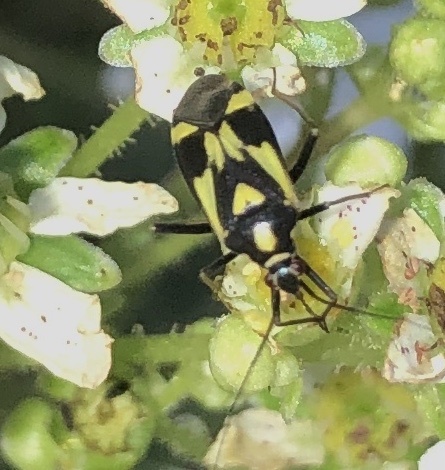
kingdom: Animalia
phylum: Arthropoda
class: Insecta
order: Hemiptera
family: Miridae
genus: Grypocoris
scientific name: Grypocoris sexguttatus
